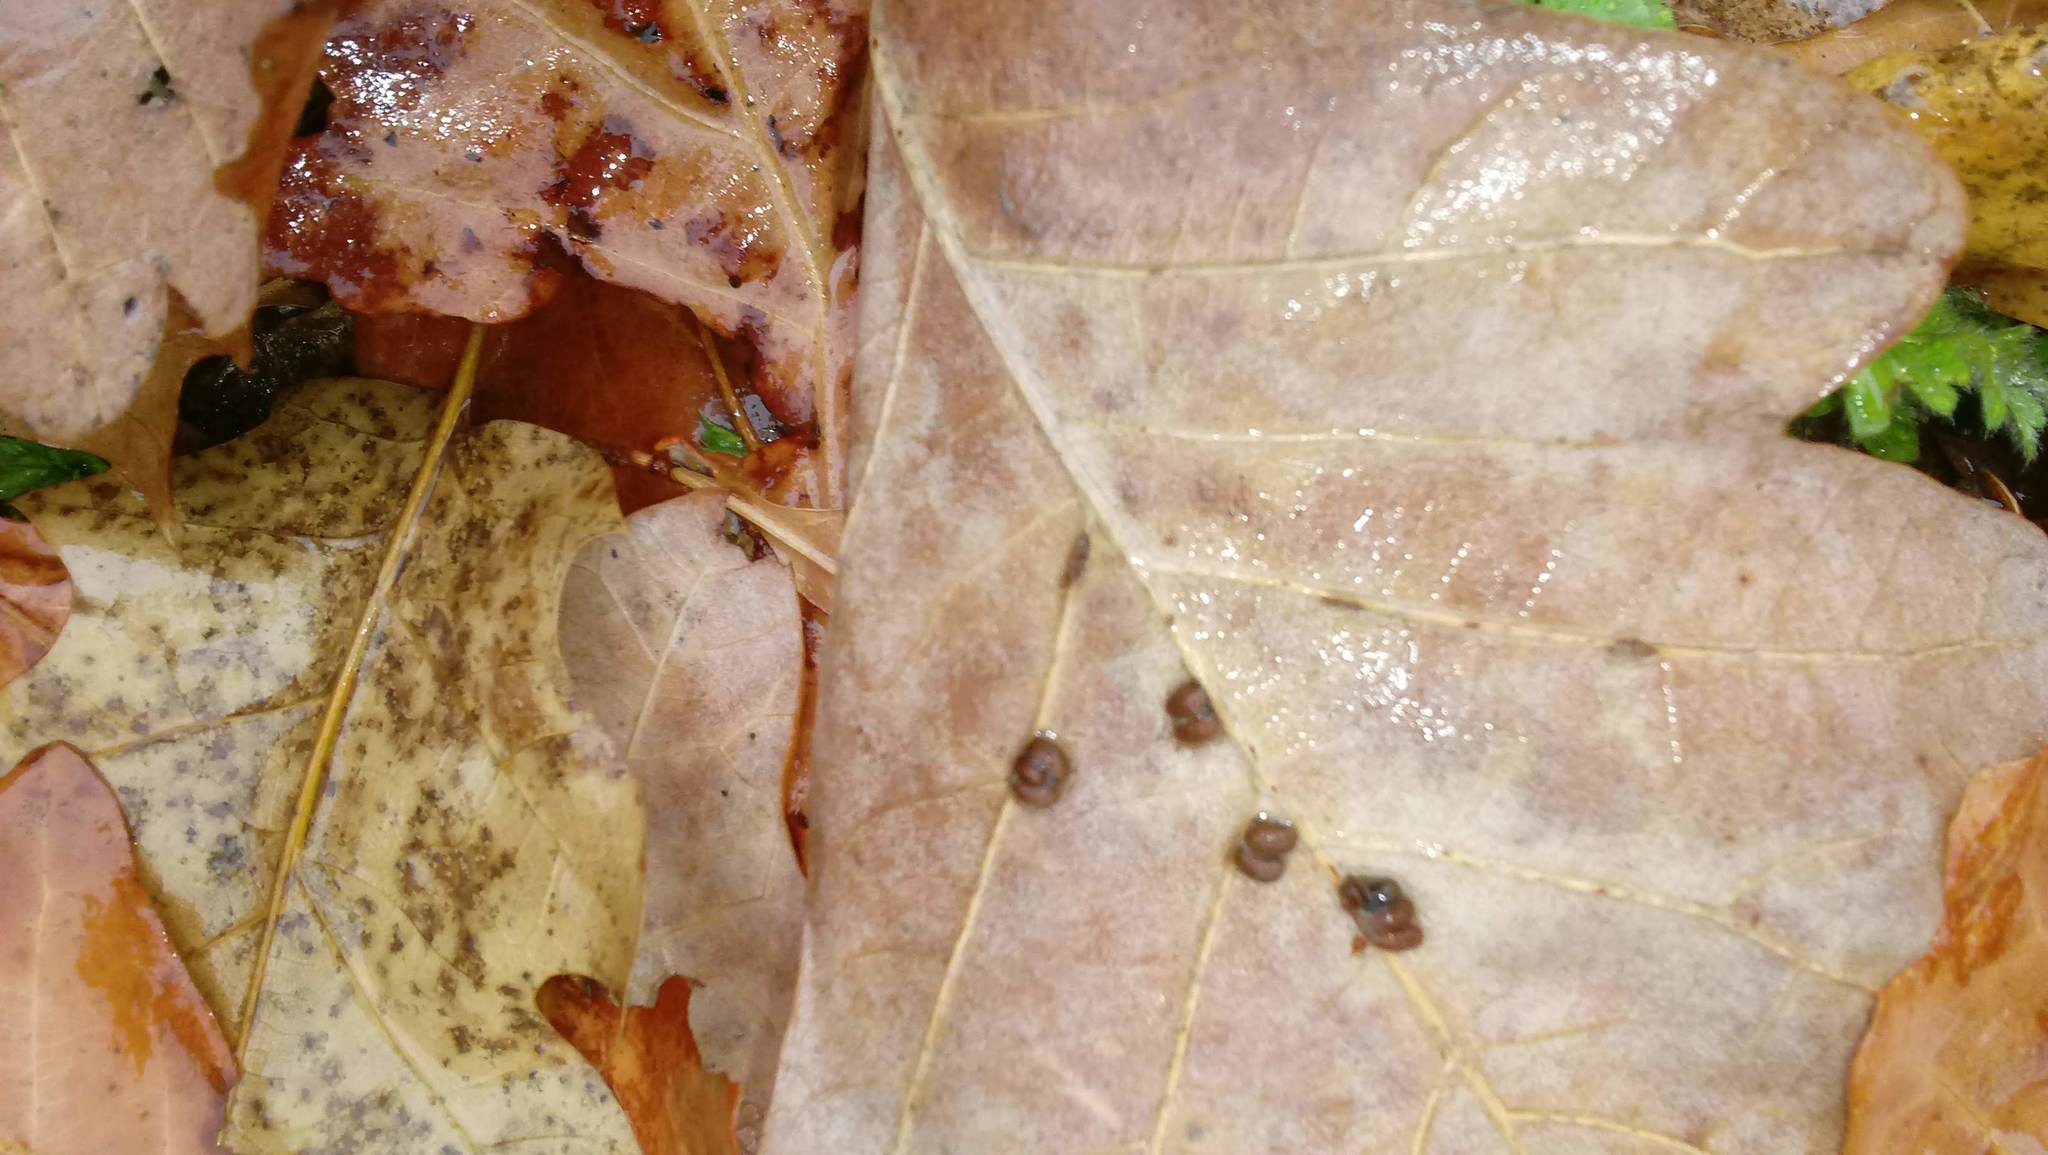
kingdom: Animalia
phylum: Arthropoda
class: Insecta
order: Hymenoptera
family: Cynipidae
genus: Andricus
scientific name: Andricus Druon ignotum
